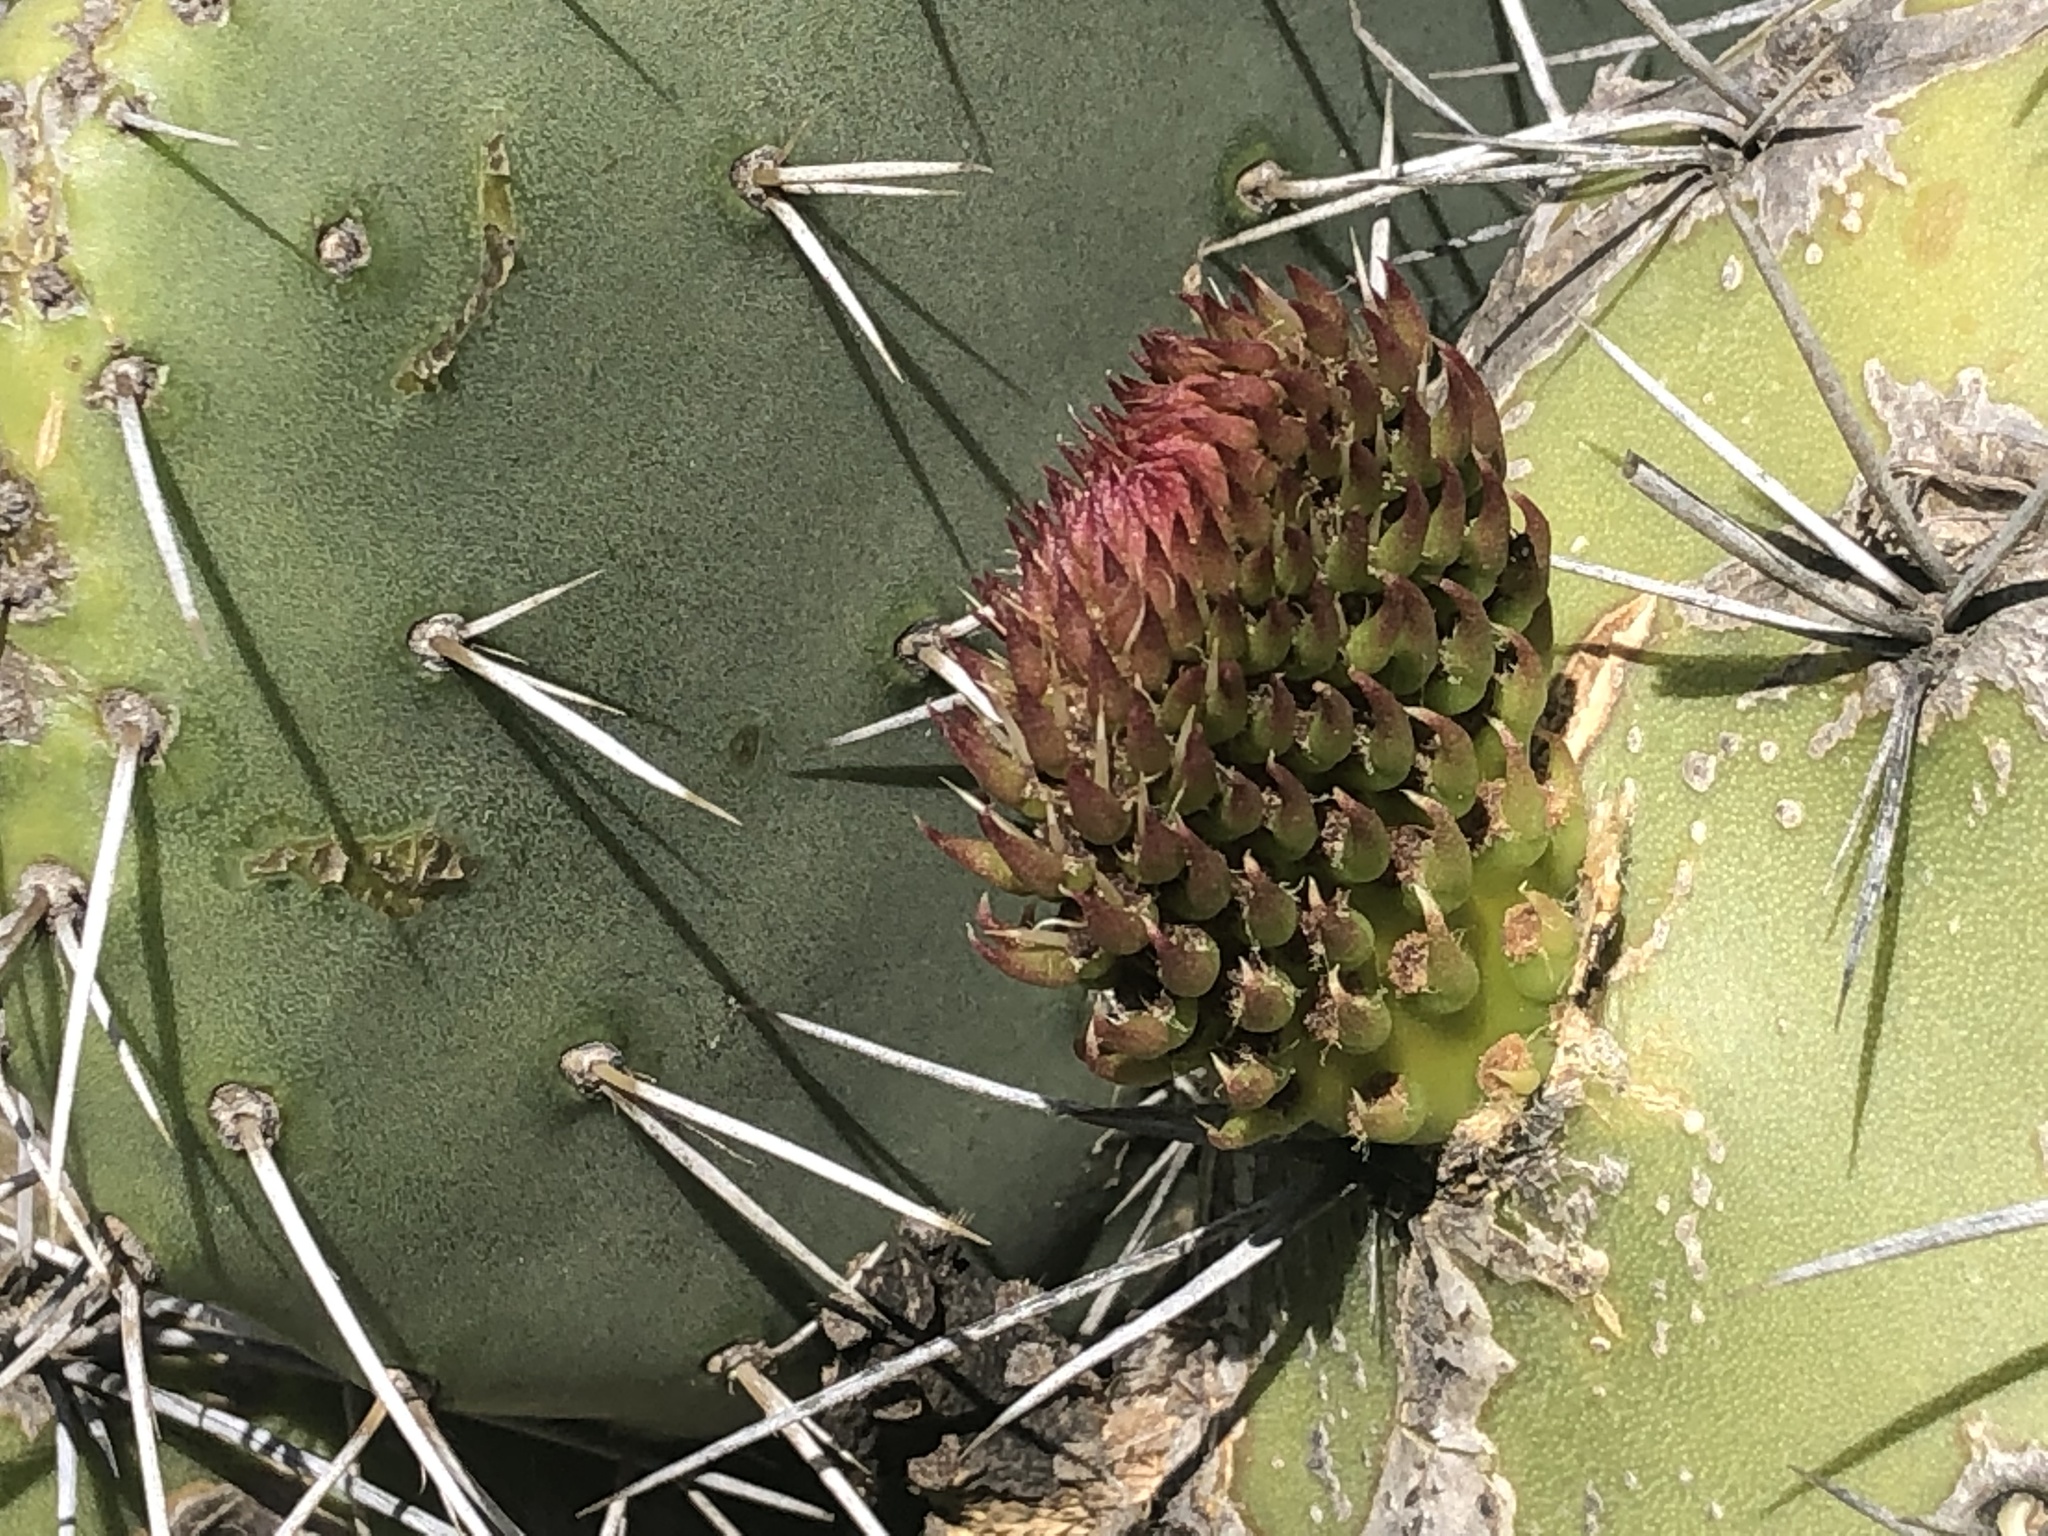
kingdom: Plantae
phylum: Tracheophyta
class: Magnoliopsida
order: Caryophyllales
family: Cactaceae
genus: Opuntia
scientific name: Opuntia ficus-indica
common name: Barbary fig
